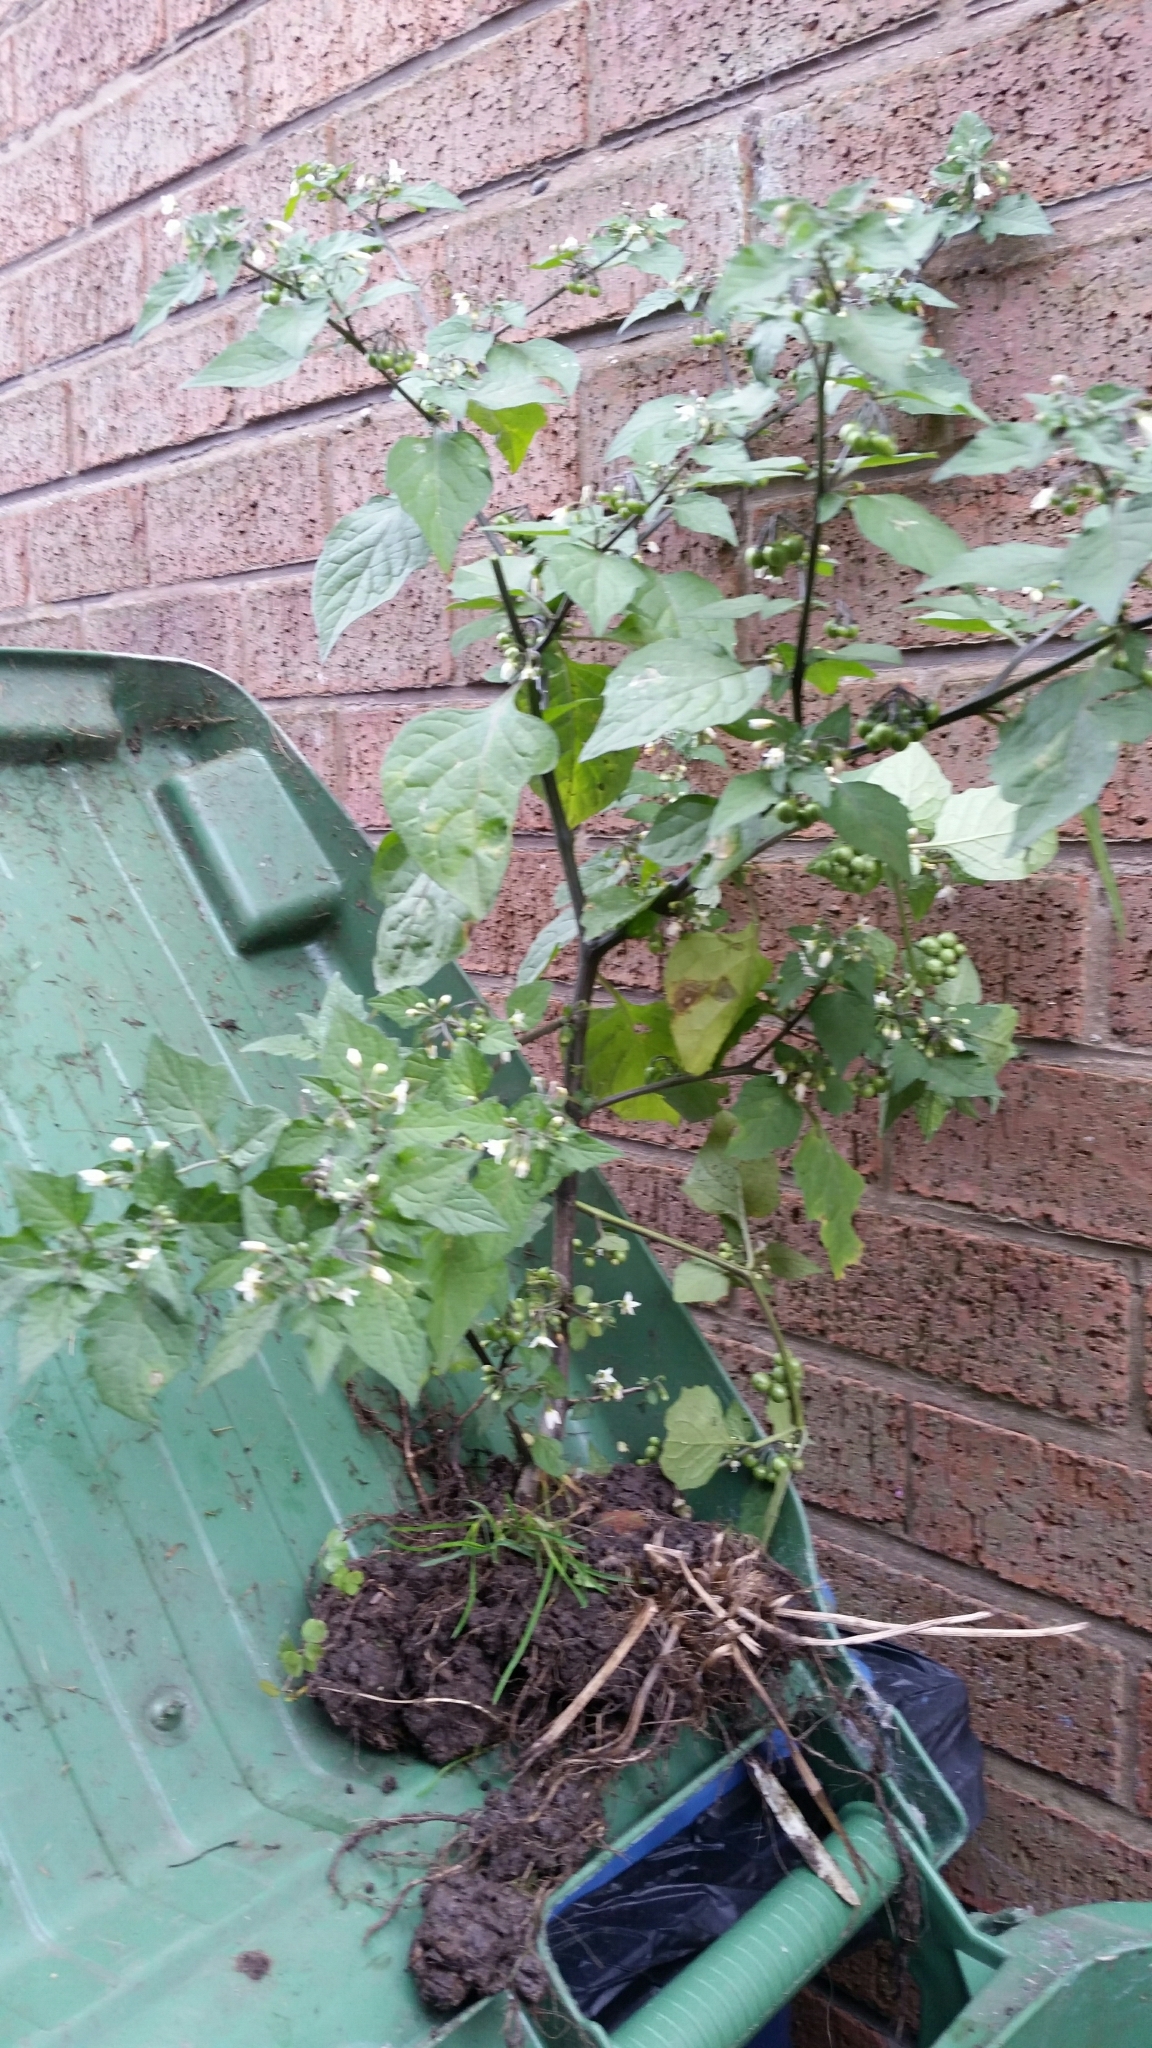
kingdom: Plantae
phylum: Tracheophyta
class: Magnoliopsida
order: Solanales
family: Solanaceae
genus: Solanum
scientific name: Solanum nigrum
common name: Black nightshade
